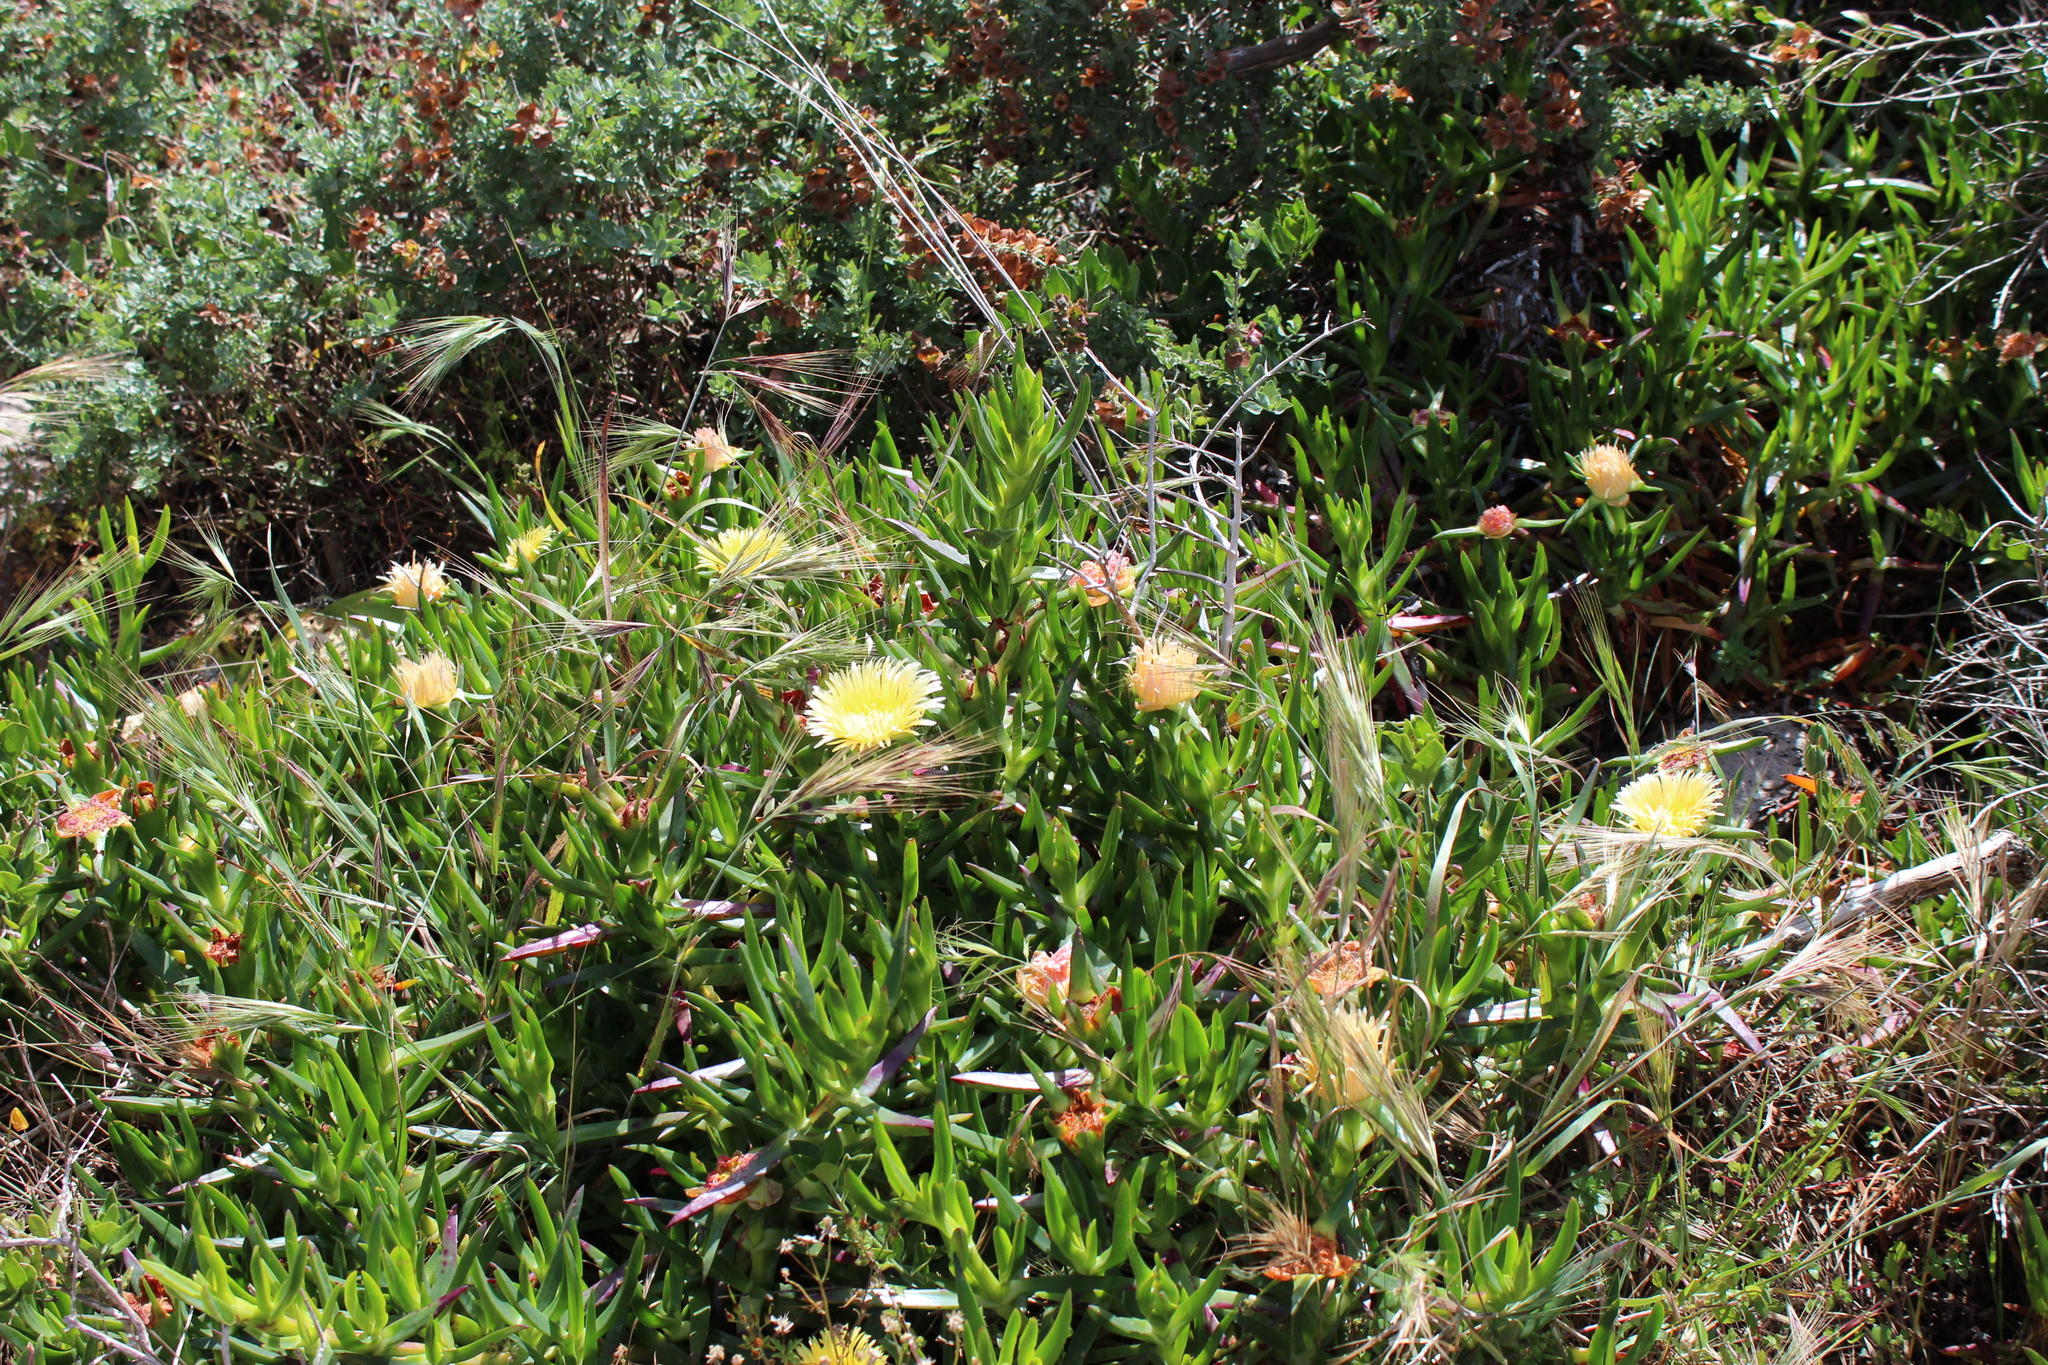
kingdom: Plantae
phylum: Tracheophyta
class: Magnoliopsida
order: Caryophyllales
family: Aizoaceae
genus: Carpobrotus
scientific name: Carpobrotus edulis
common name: Hottentot-fig
